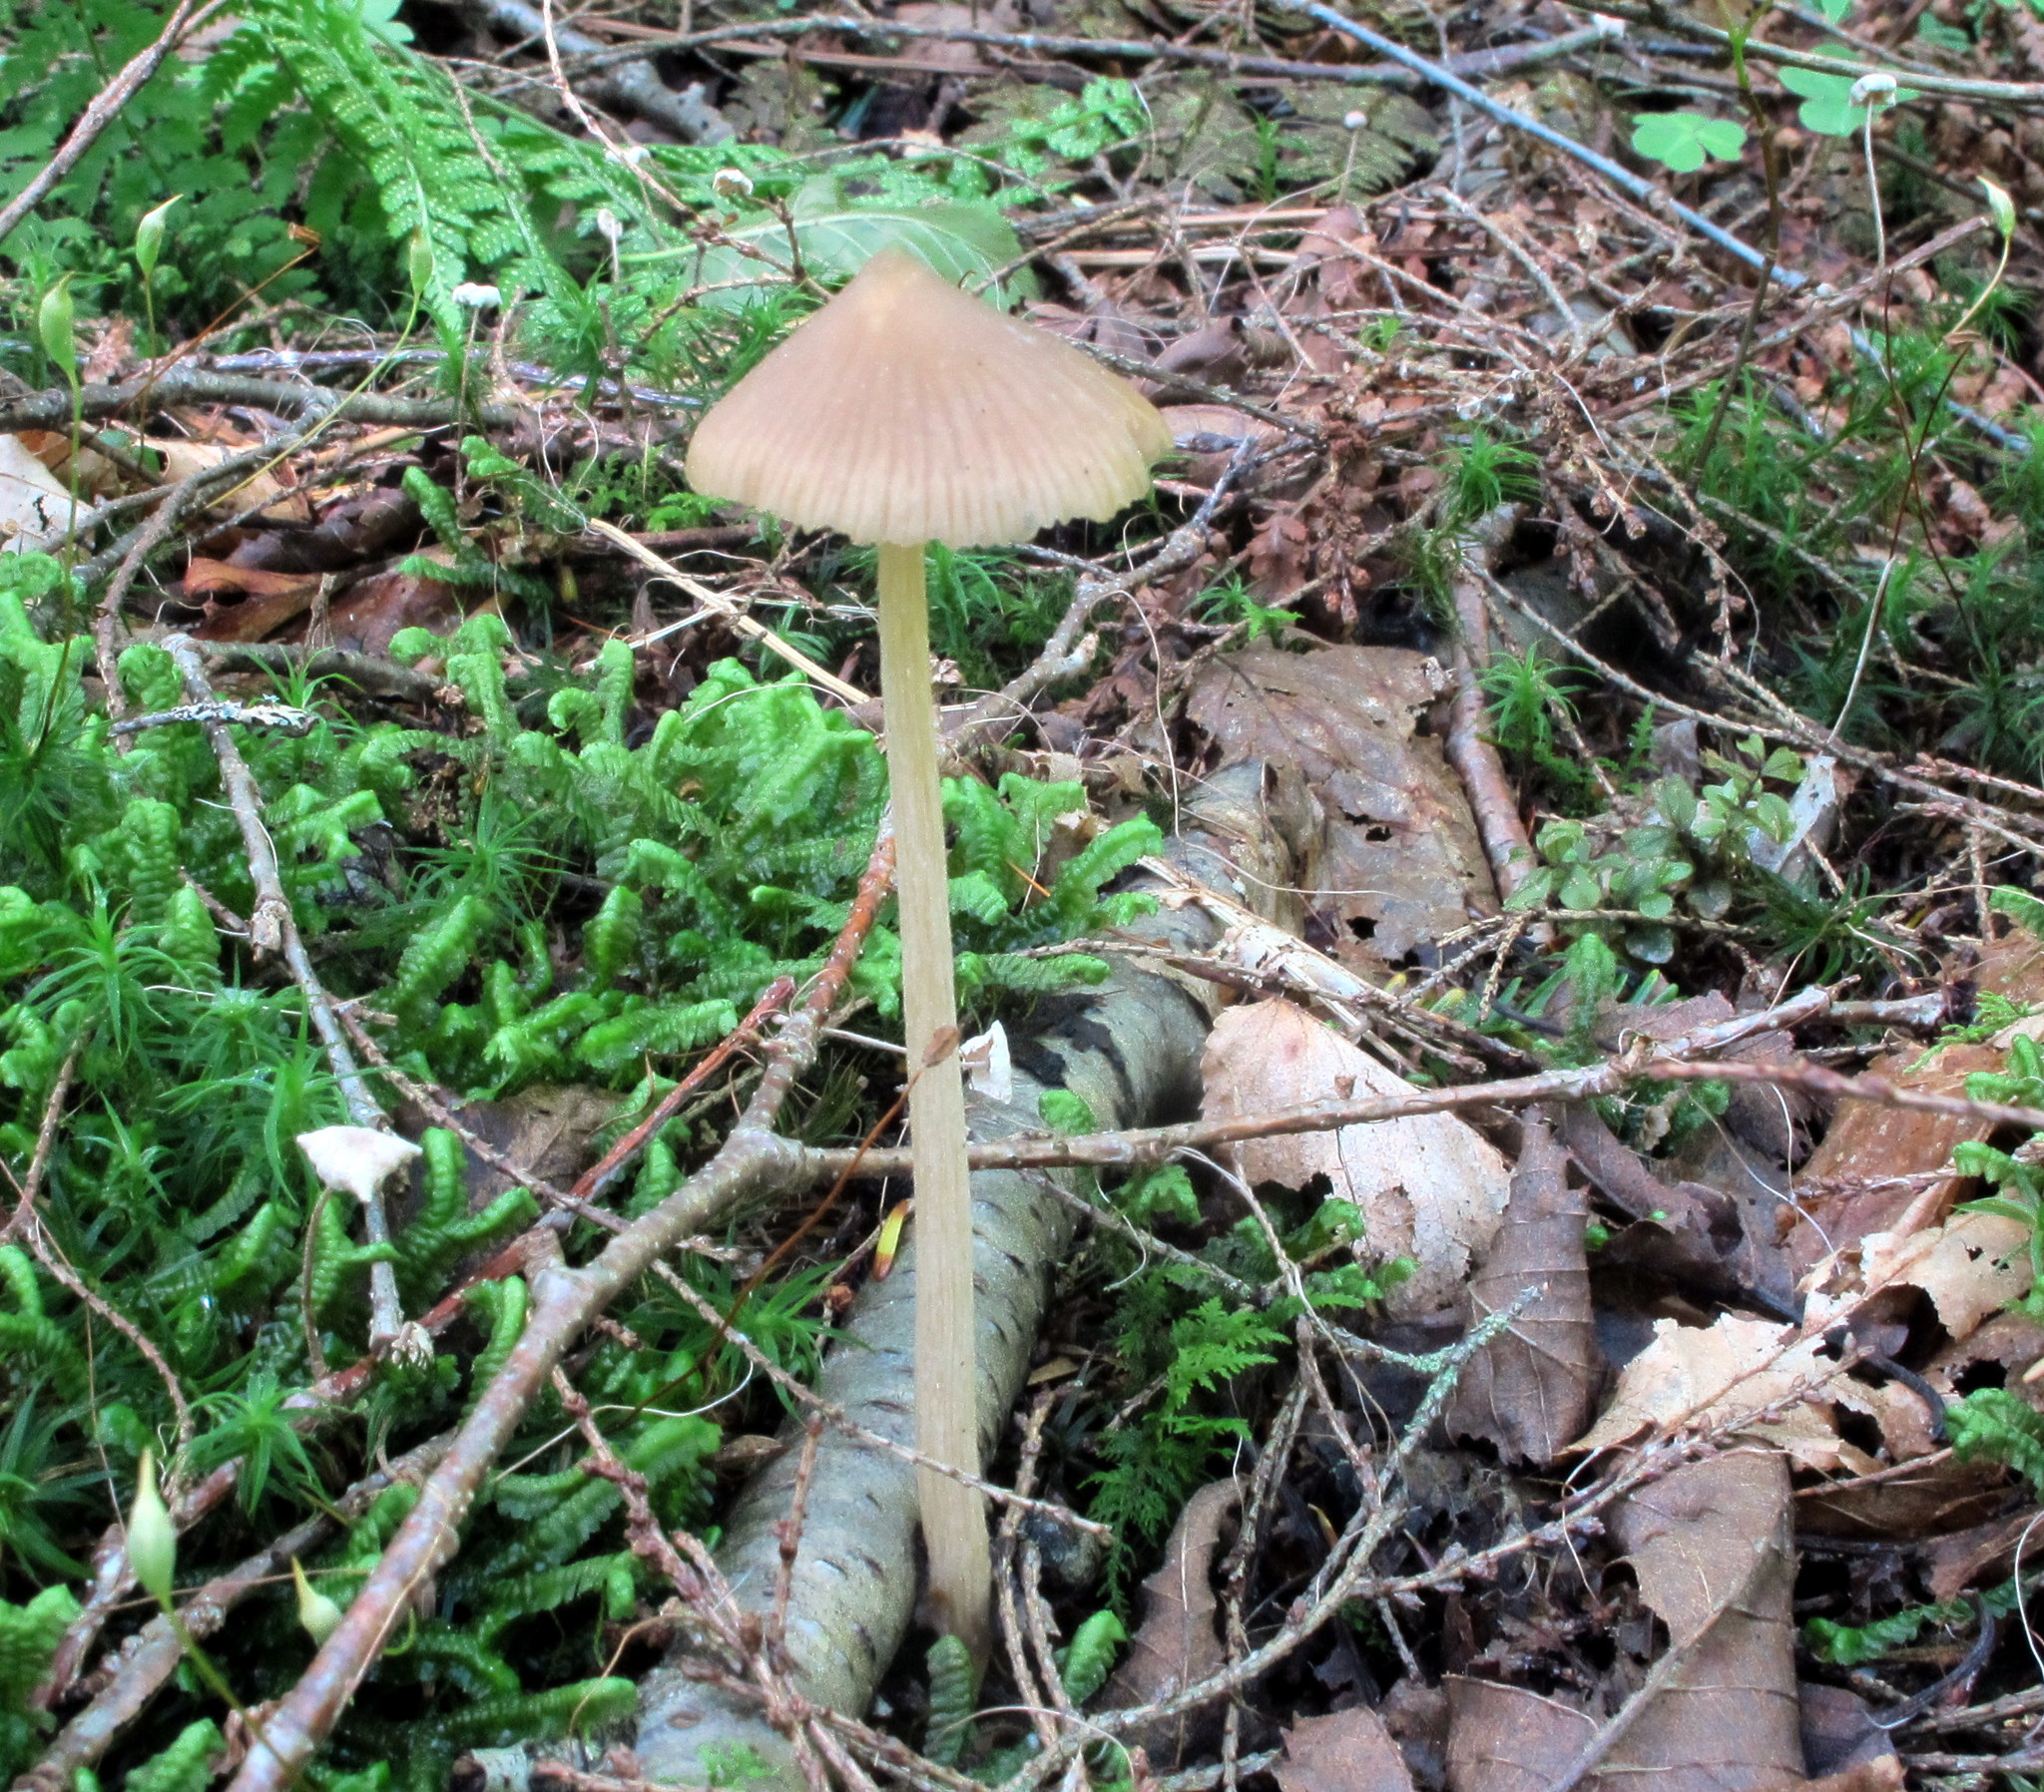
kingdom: Fungi
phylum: Basidiomycota
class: Agaricomycetes
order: Agaricales
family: Entolomataceae
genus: Entoloma
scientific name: Entoloma strictius
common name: Straight-stalked entoloma
